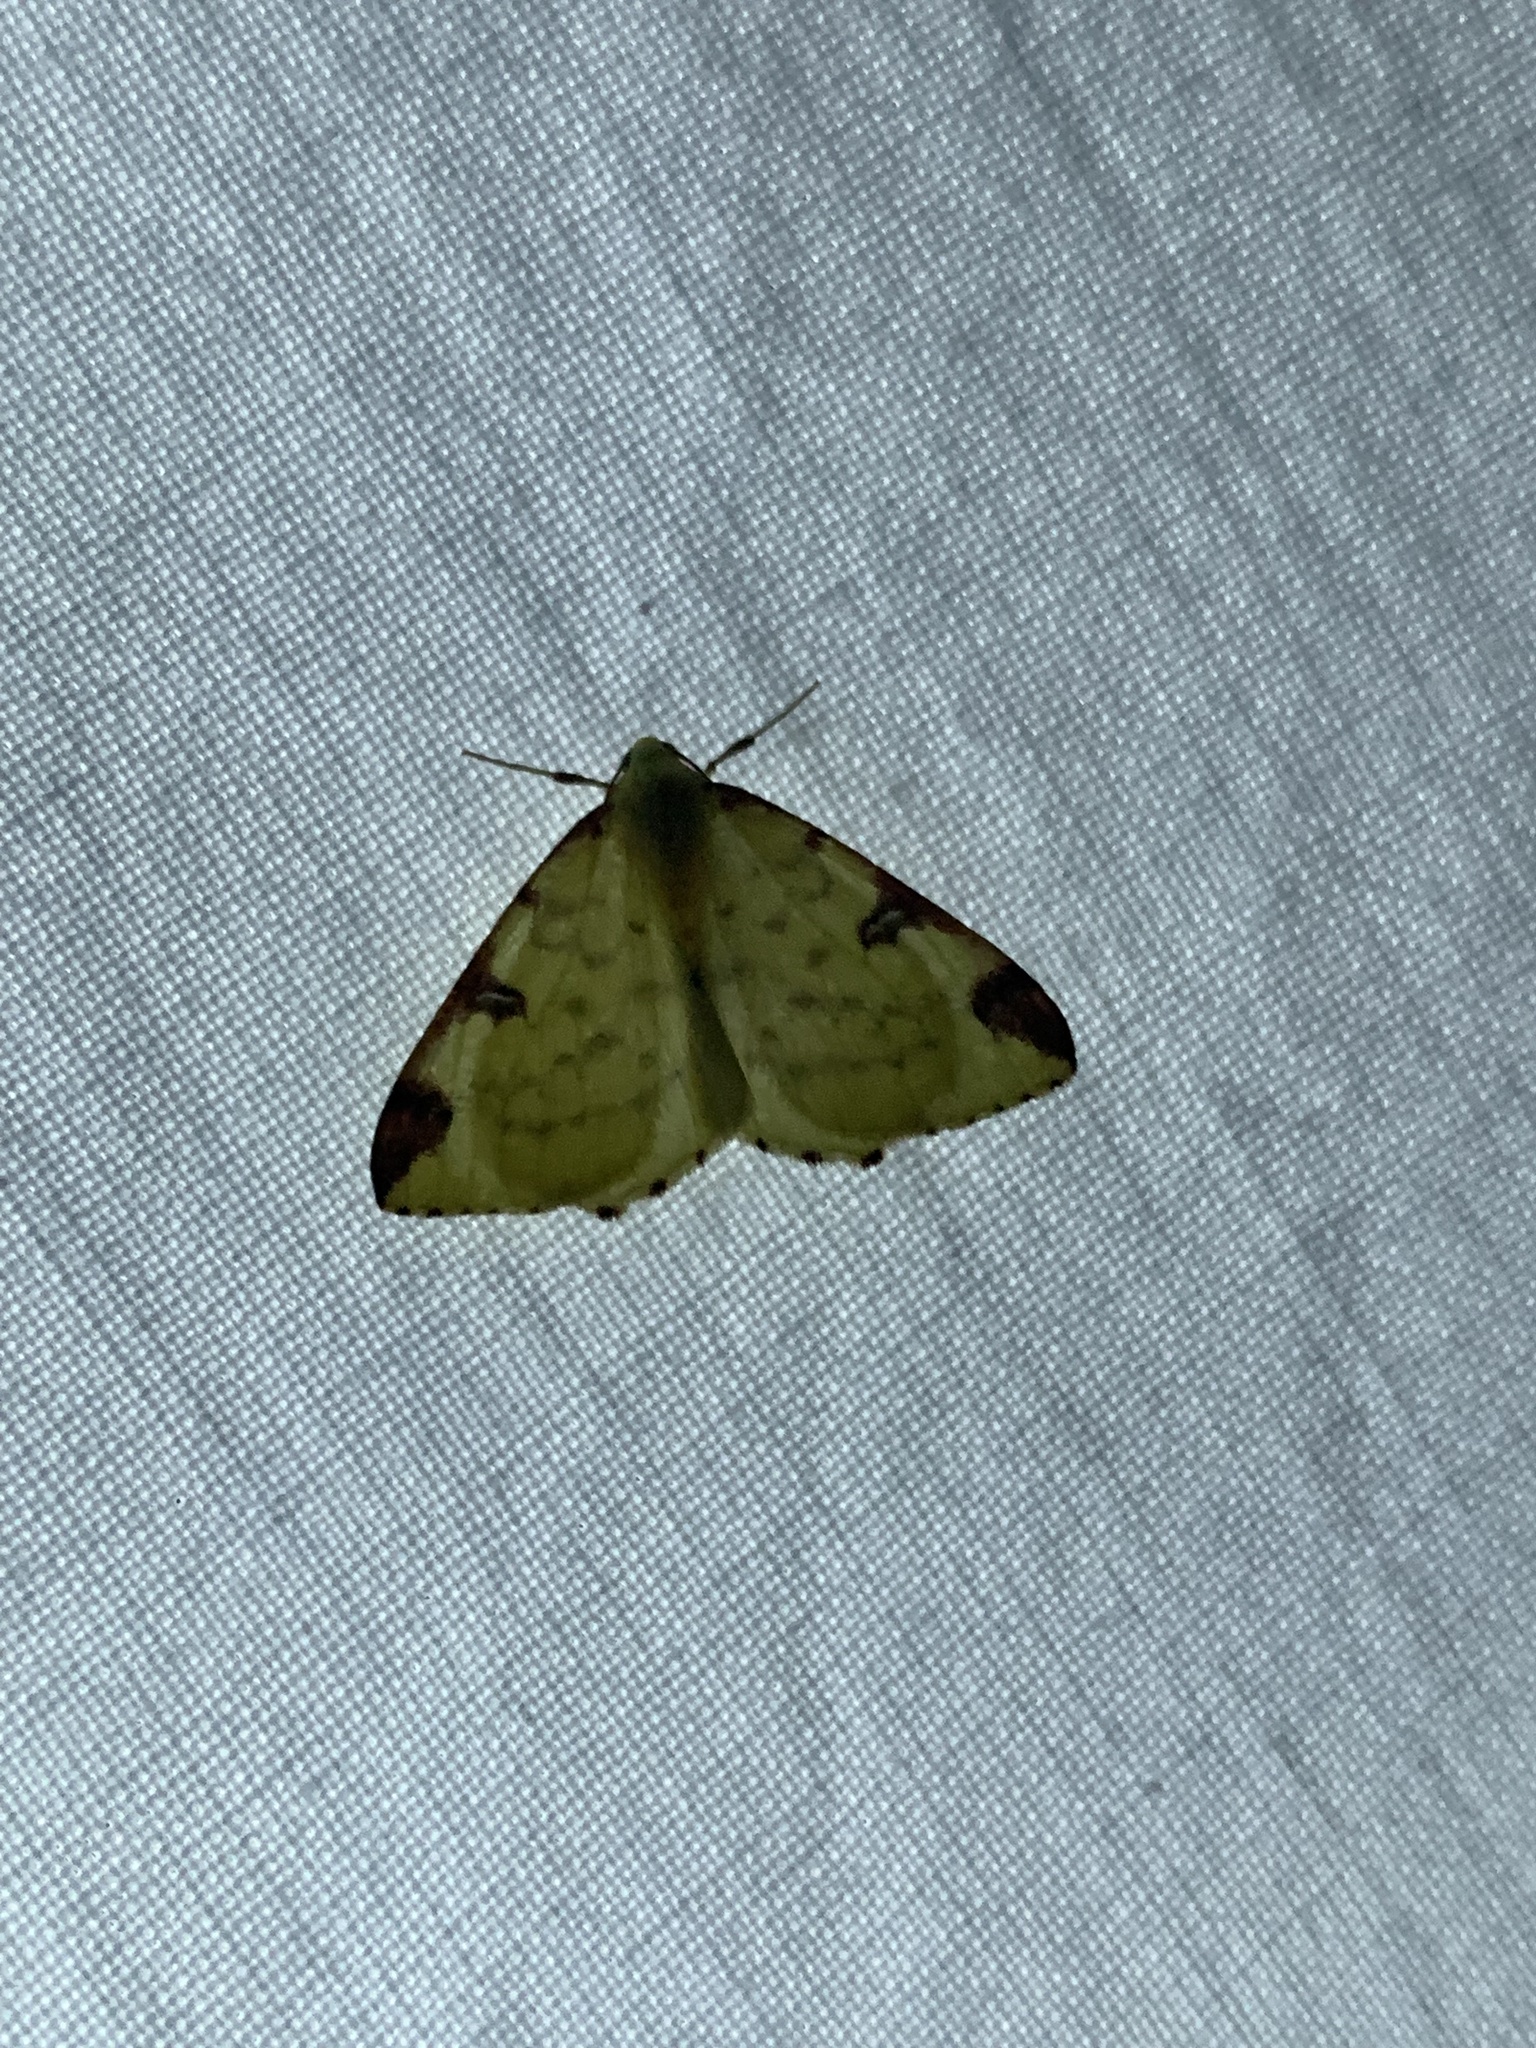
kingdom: Animalia
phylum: Arthropoda
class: Insecta
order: Lepidoptera
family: Geometridae
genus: Opisthograptis
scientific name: Opisthograptis luteolata
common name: Brimstone moth
